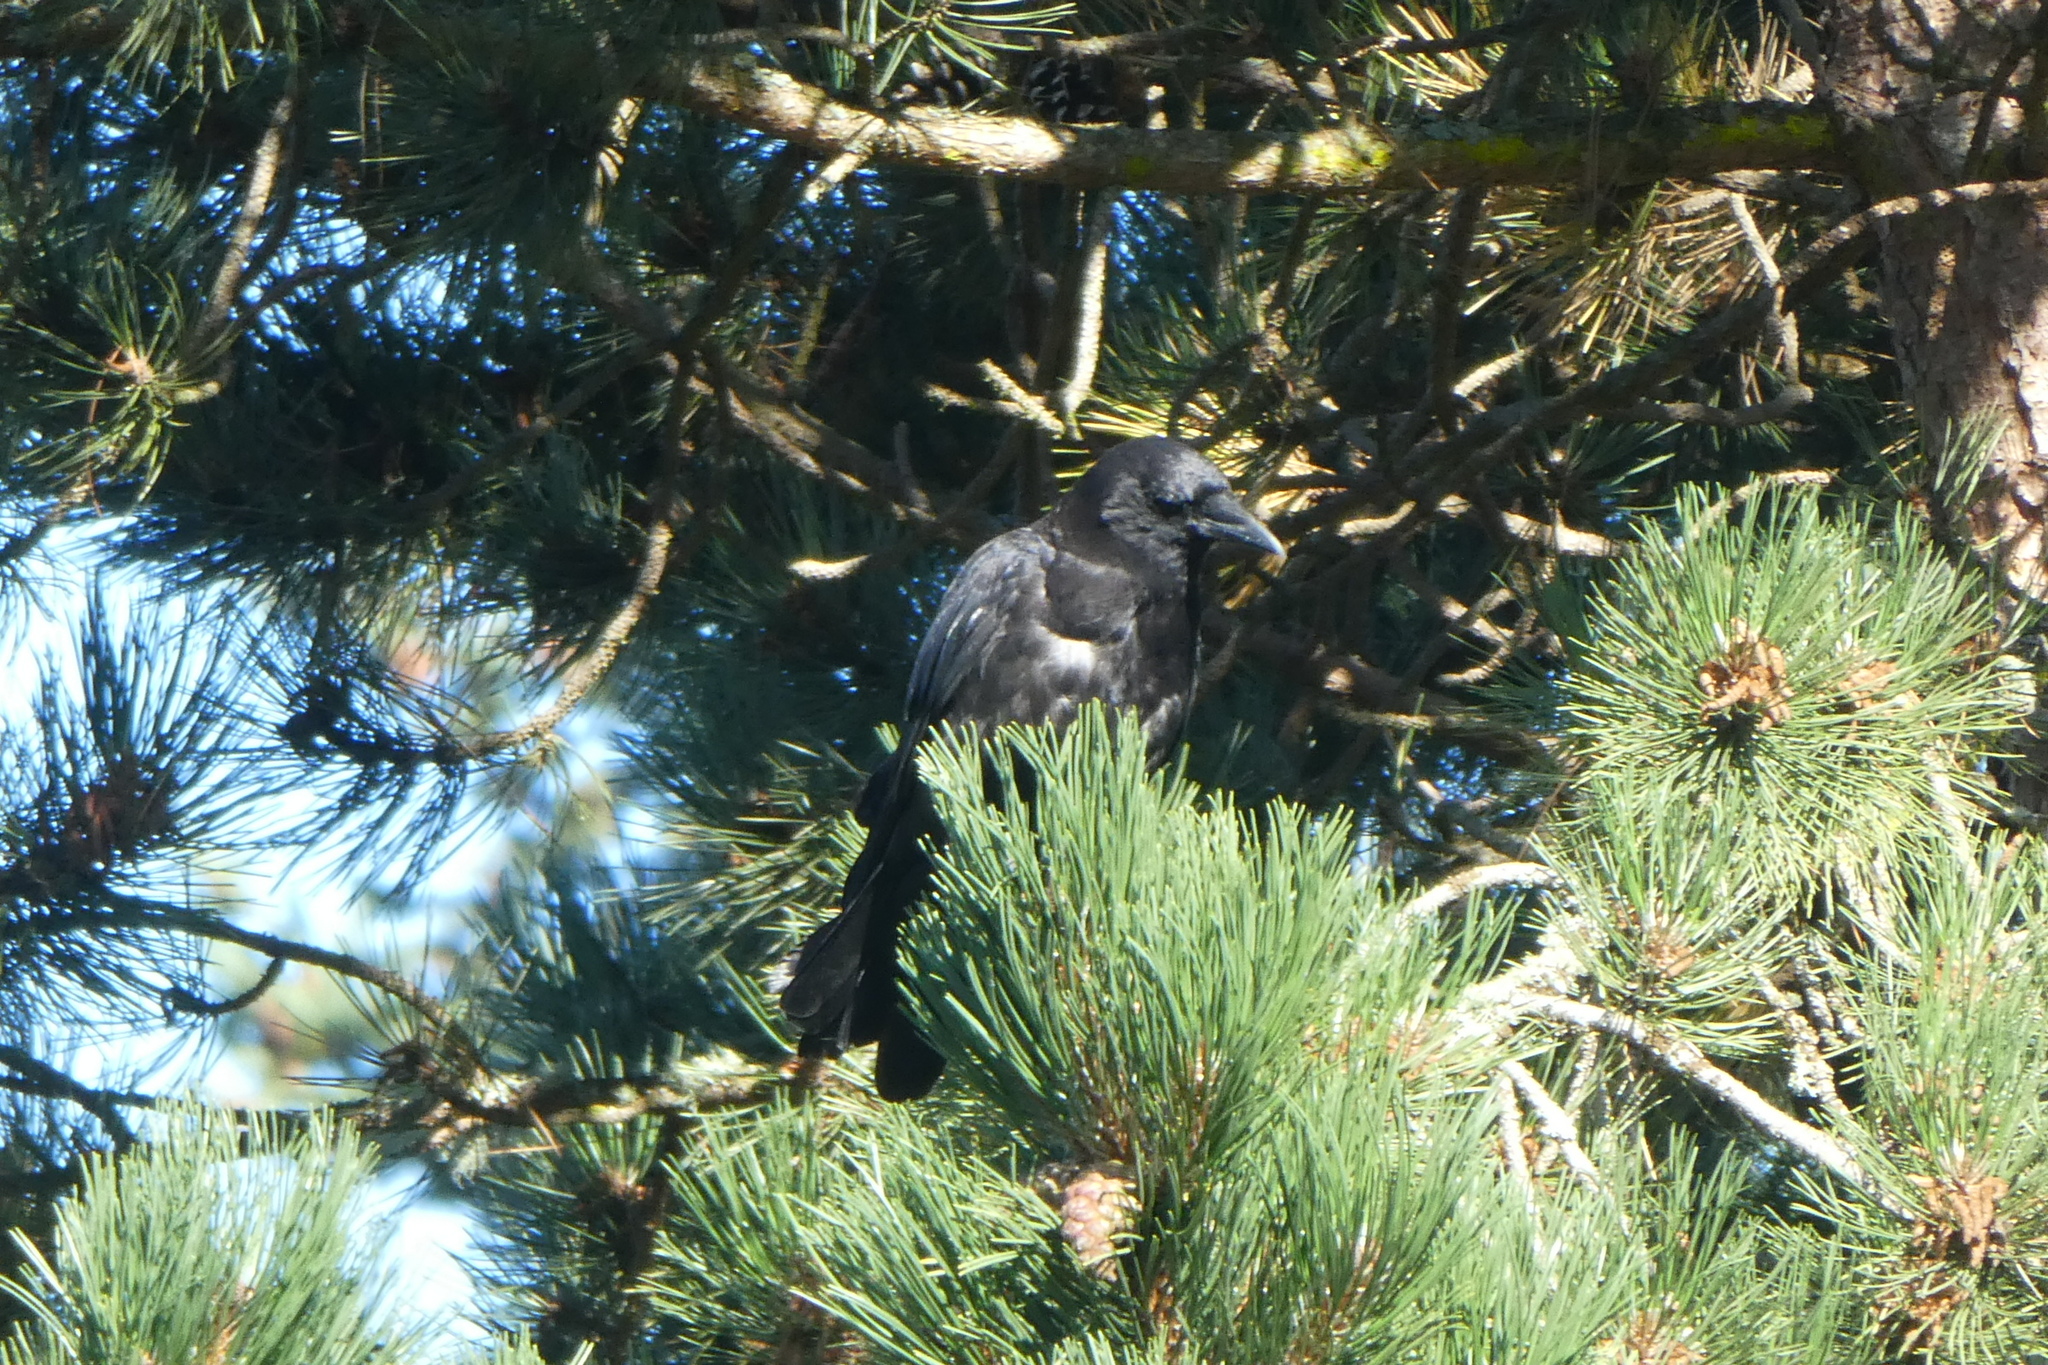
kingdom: Animalia
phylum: Chordata
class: Aves
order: Passeriformes
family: Corvidae
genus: Corvus
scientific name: Corvus brachyrhynchos
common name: American crow
